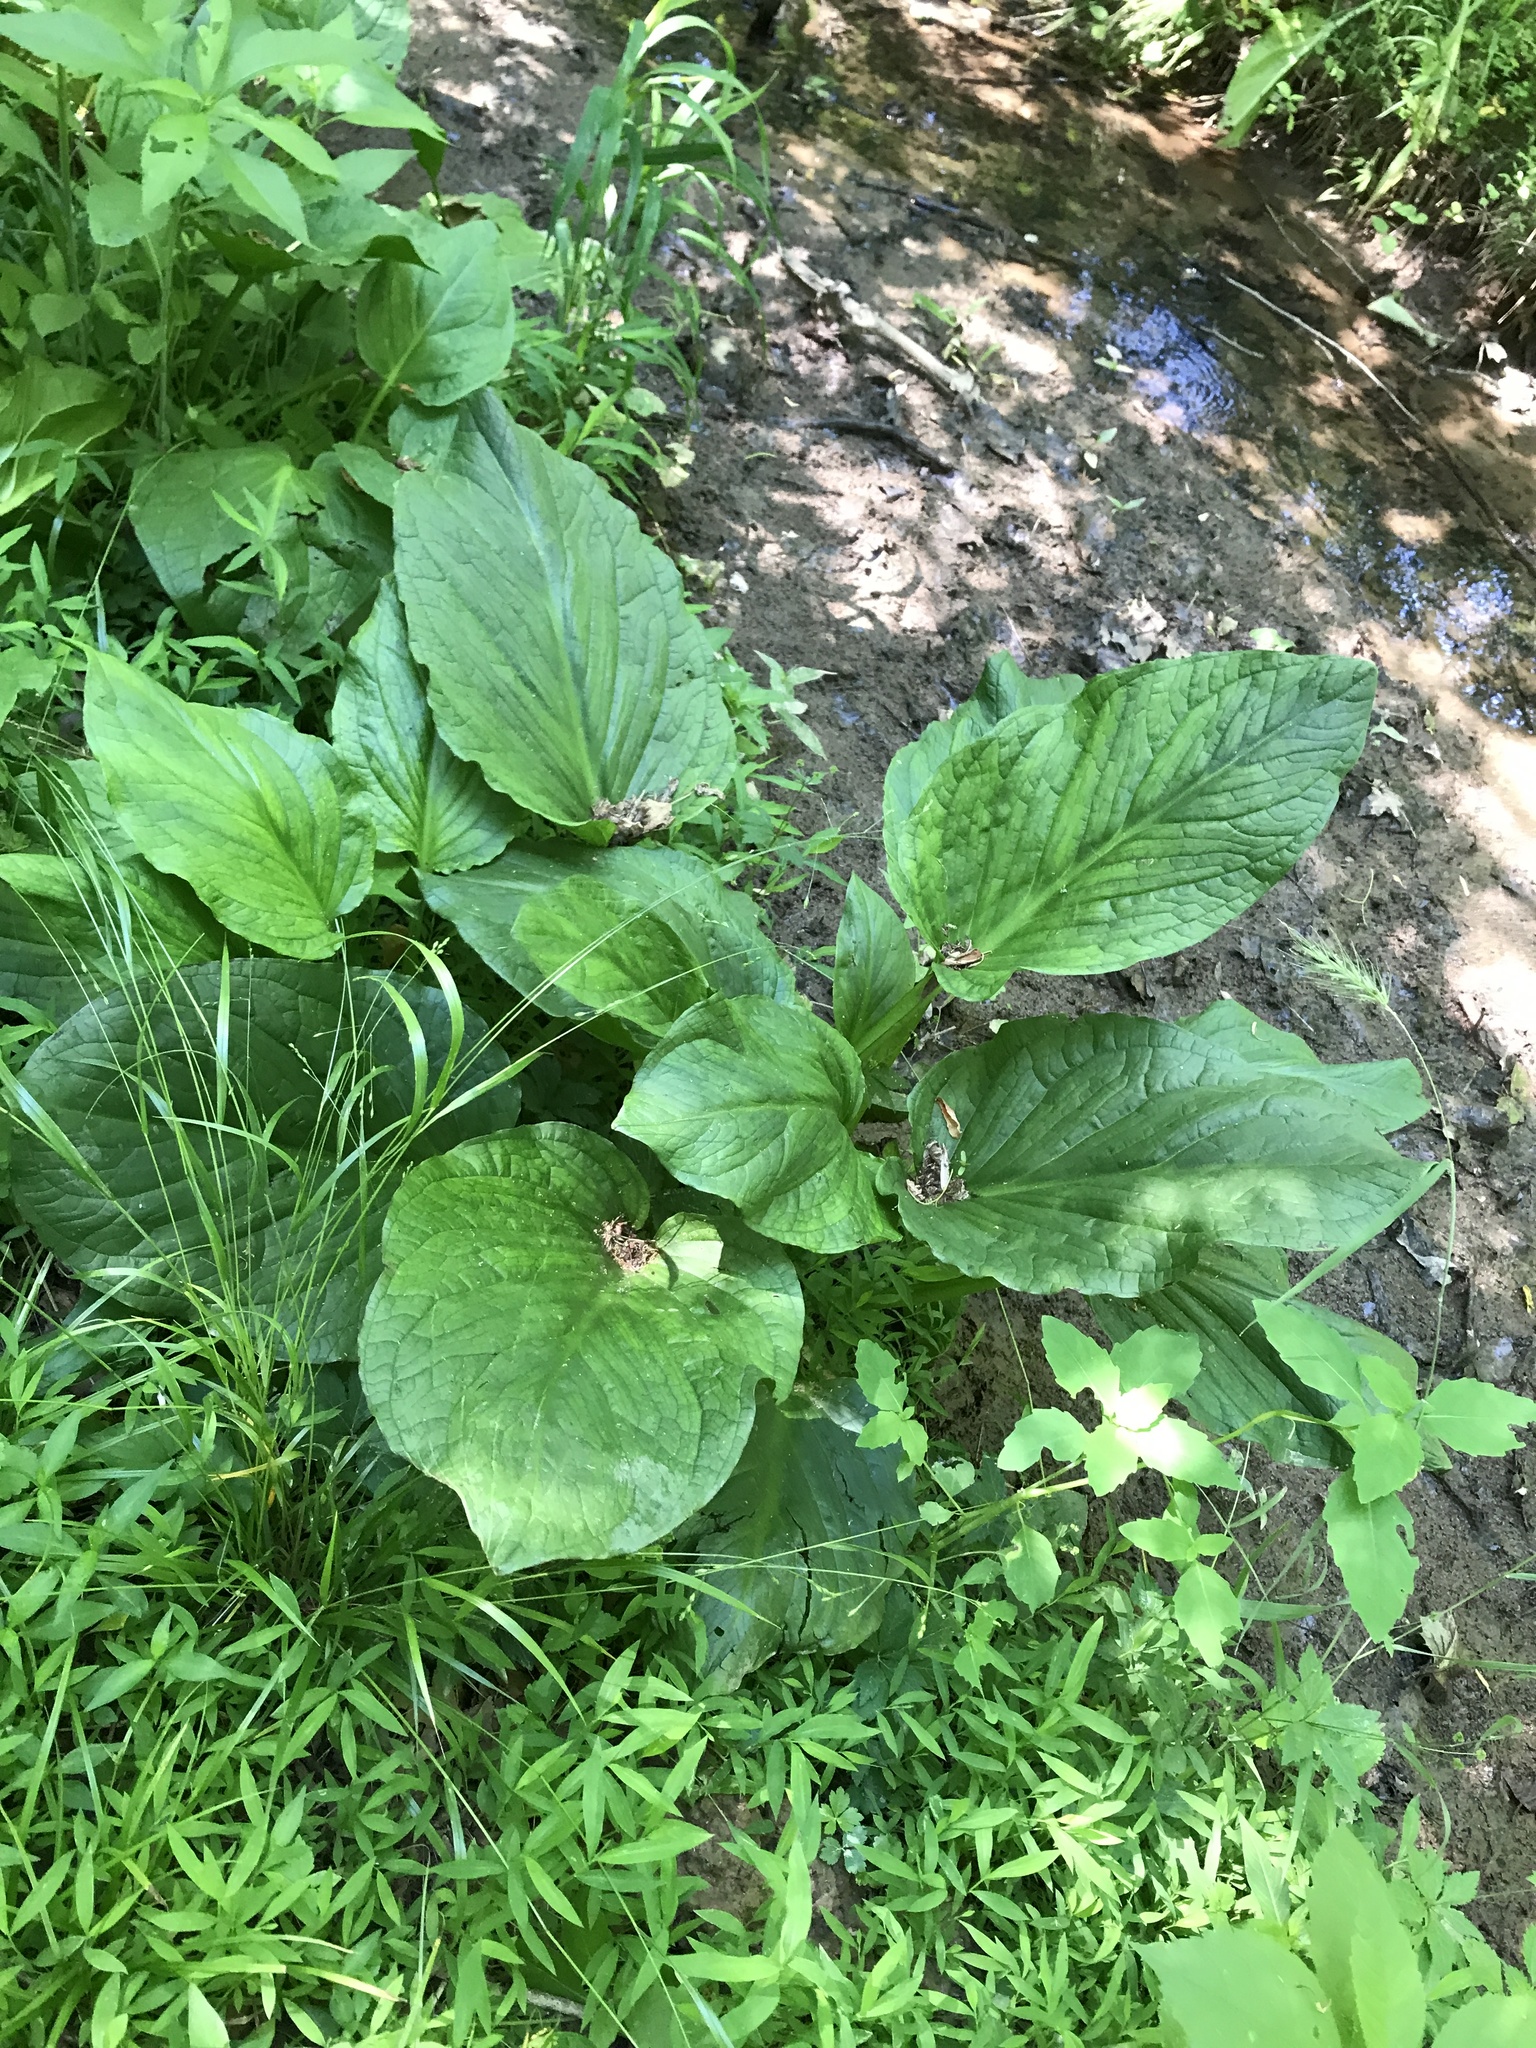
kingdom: Plantae
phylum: Tracheophyta
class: Liliopsida
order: Alismatales
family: Araceae
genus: Symplocarpus
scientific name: Symplocarpus foetidus
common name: Eastern skunk cabbage
